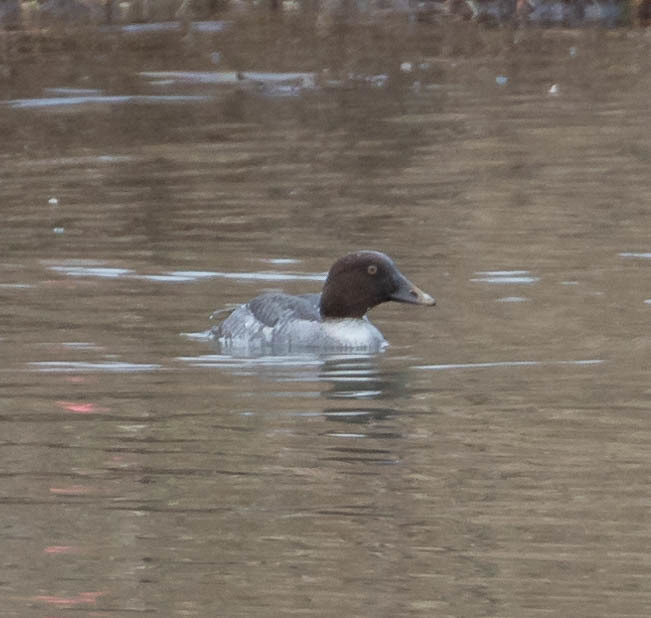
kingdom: Animalia
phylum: Chordata
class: Aves
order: Anseriformes
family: Anatidae
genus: Bucephala
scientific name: Bucephala clangula
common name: Common goldeneye
